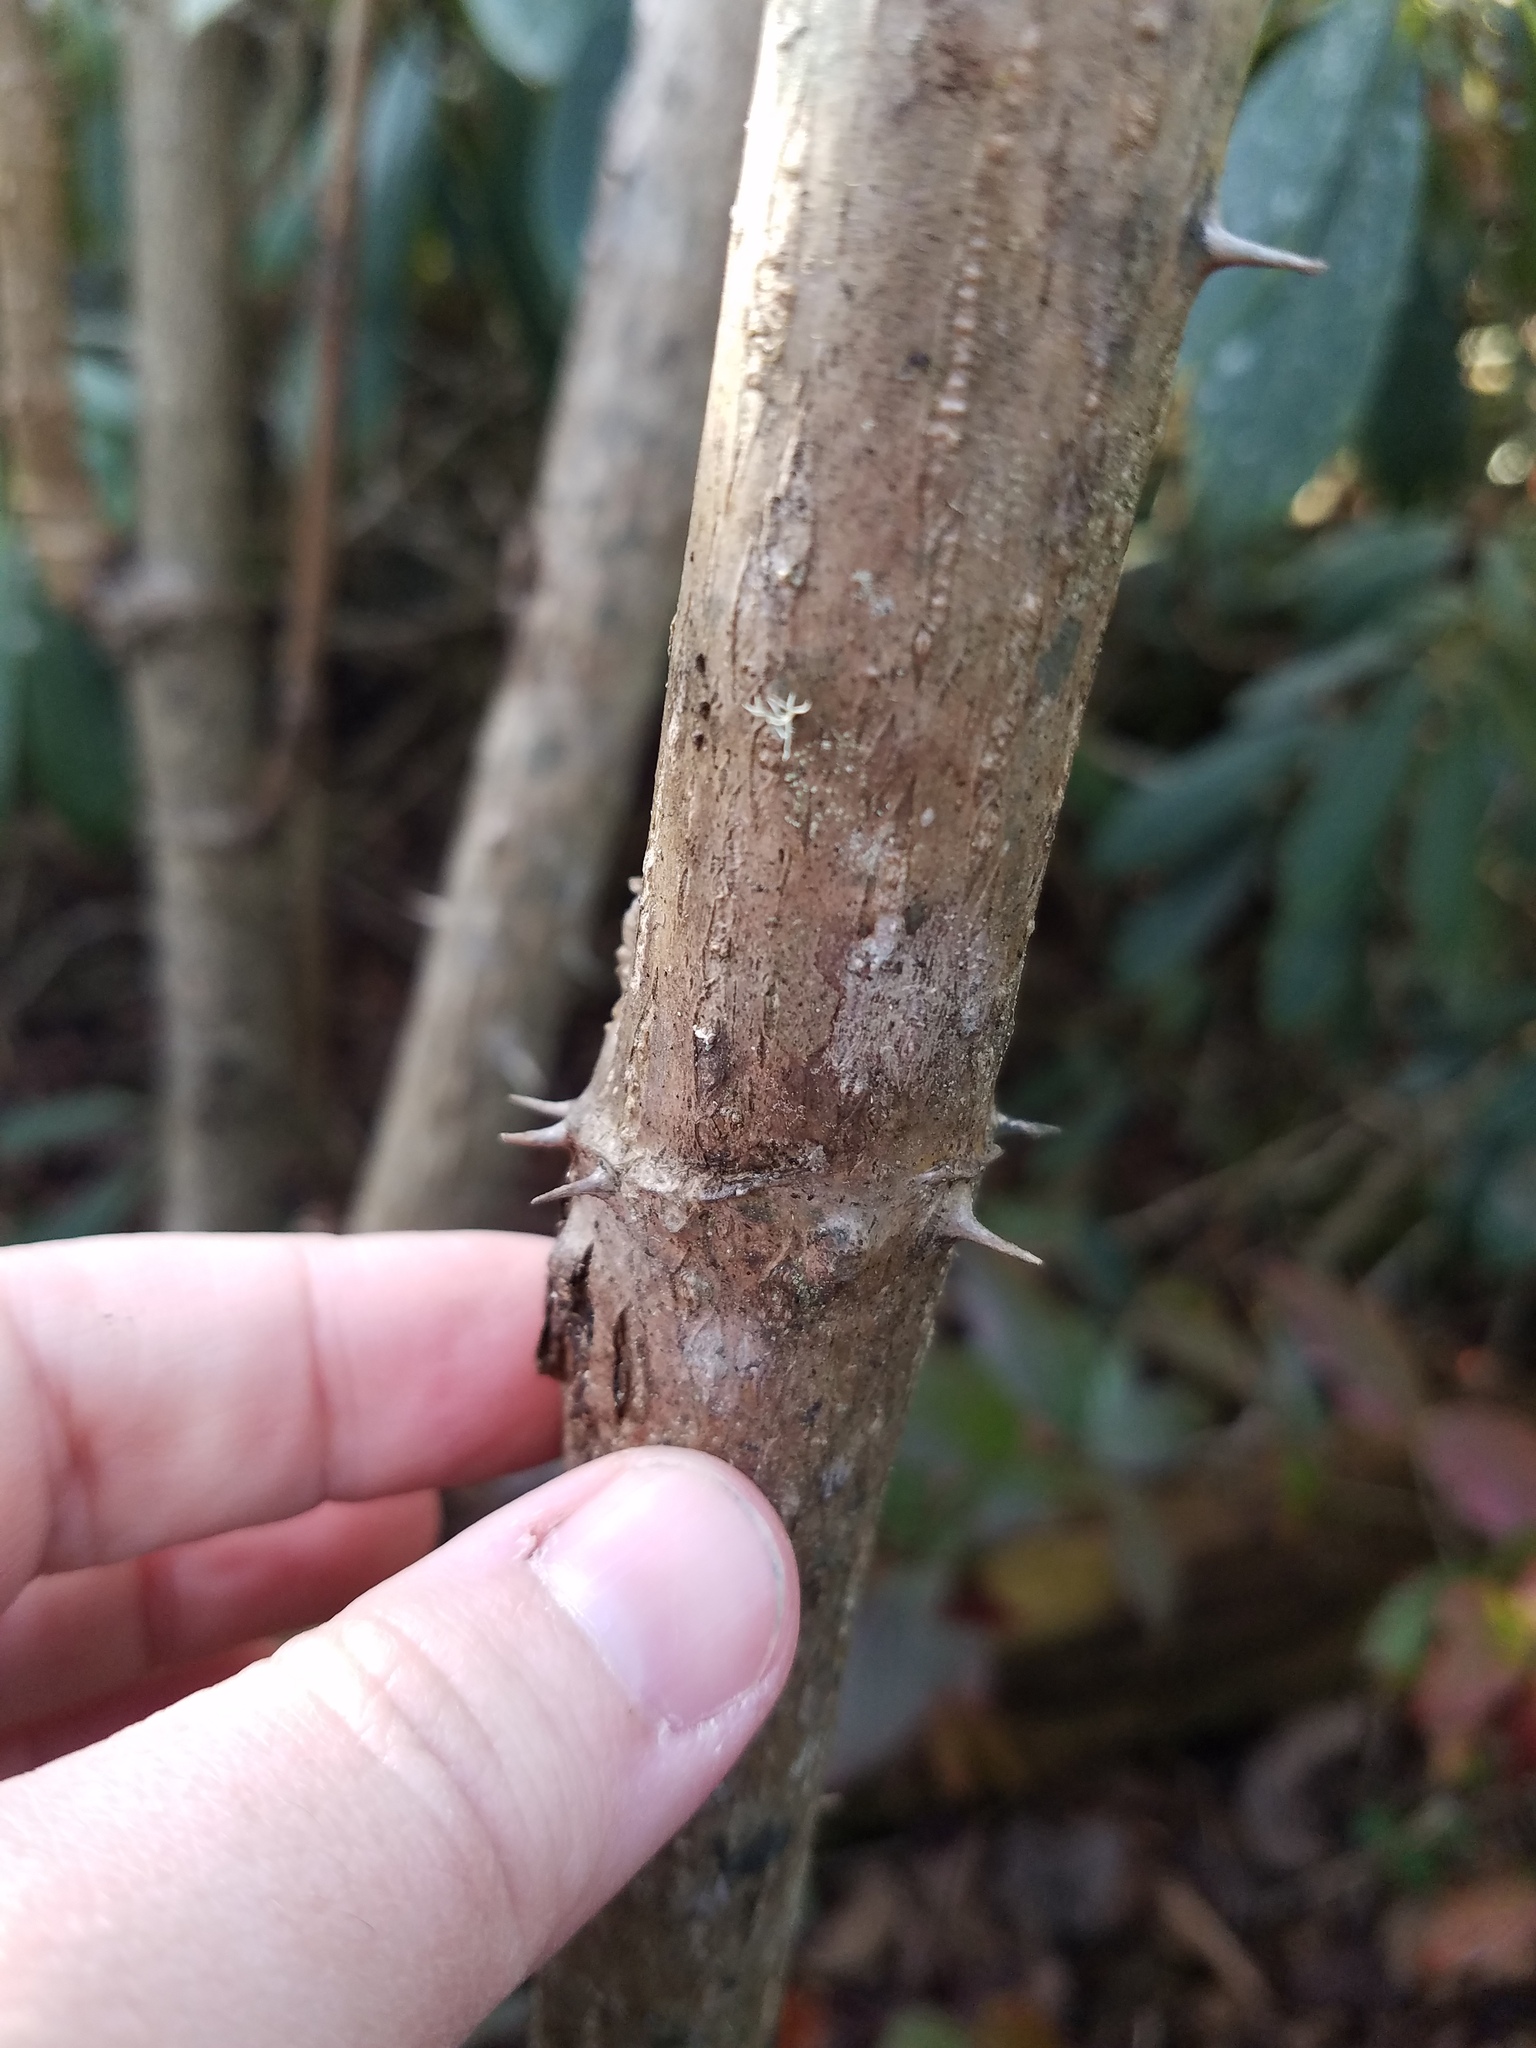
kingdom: Plantae
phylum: Tracheophyta
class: Magnoliopsida
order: Apiales
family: Araliaceae
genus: Aralia
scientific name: Aralia spinosa
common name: Hercules'-club
